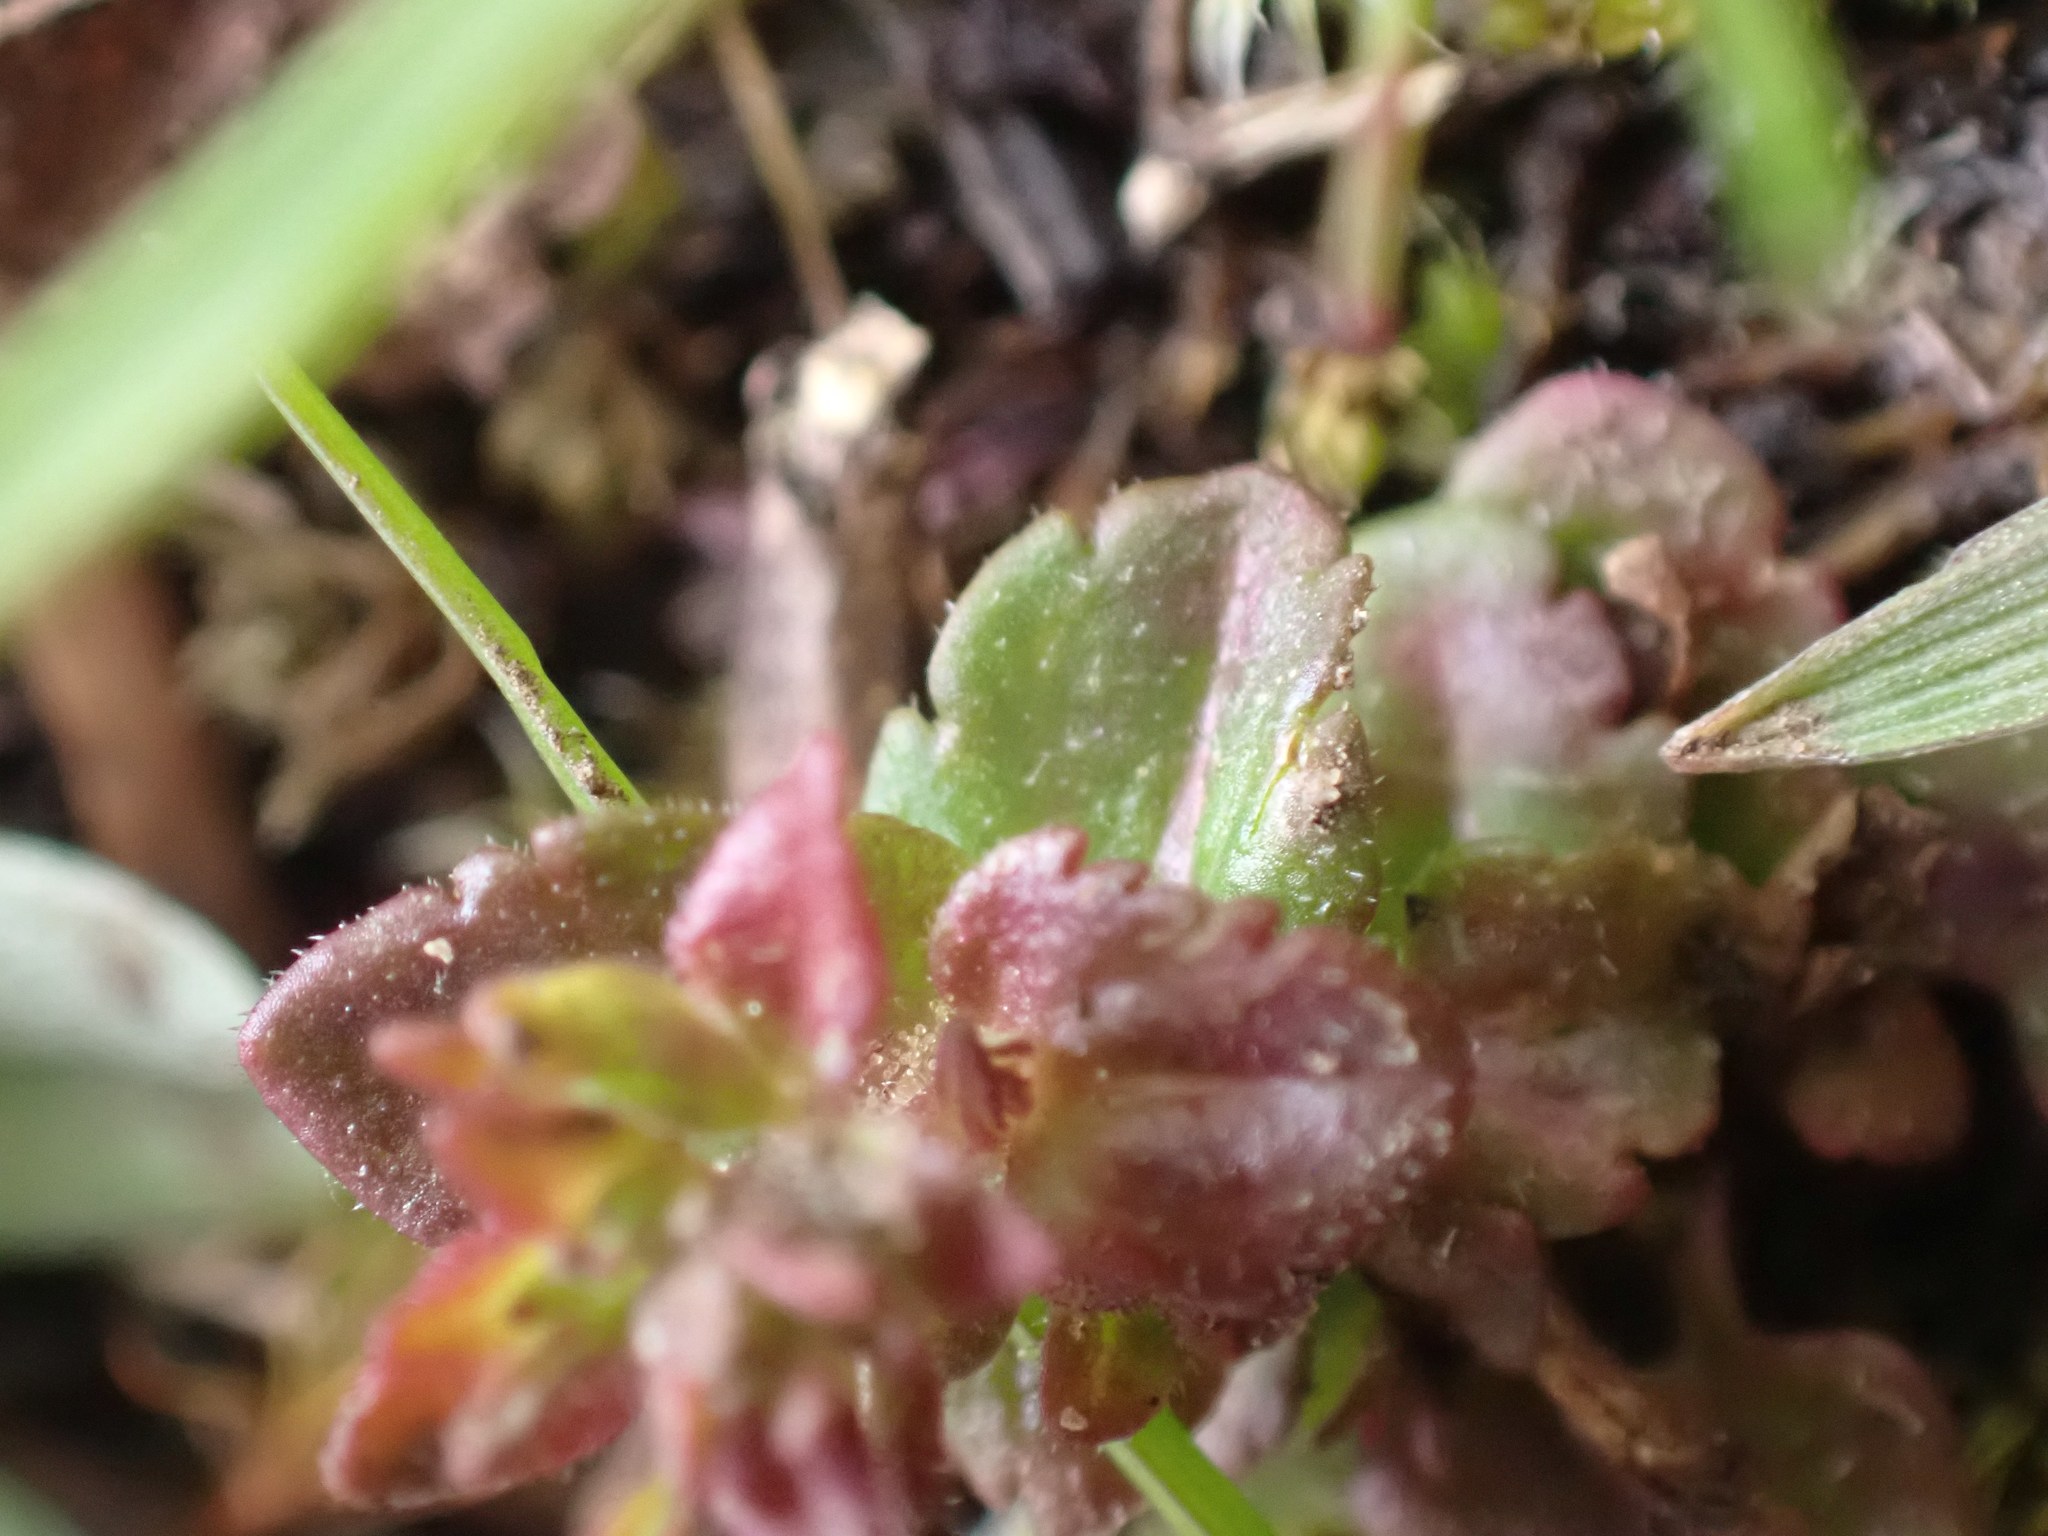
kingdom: Plantae
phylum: Tracheophyta
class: Magnoliopsida
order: Lamiales
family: Plantaginaceae
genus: Veronica
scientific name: Veronica arvensis
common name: Corn speedwell
